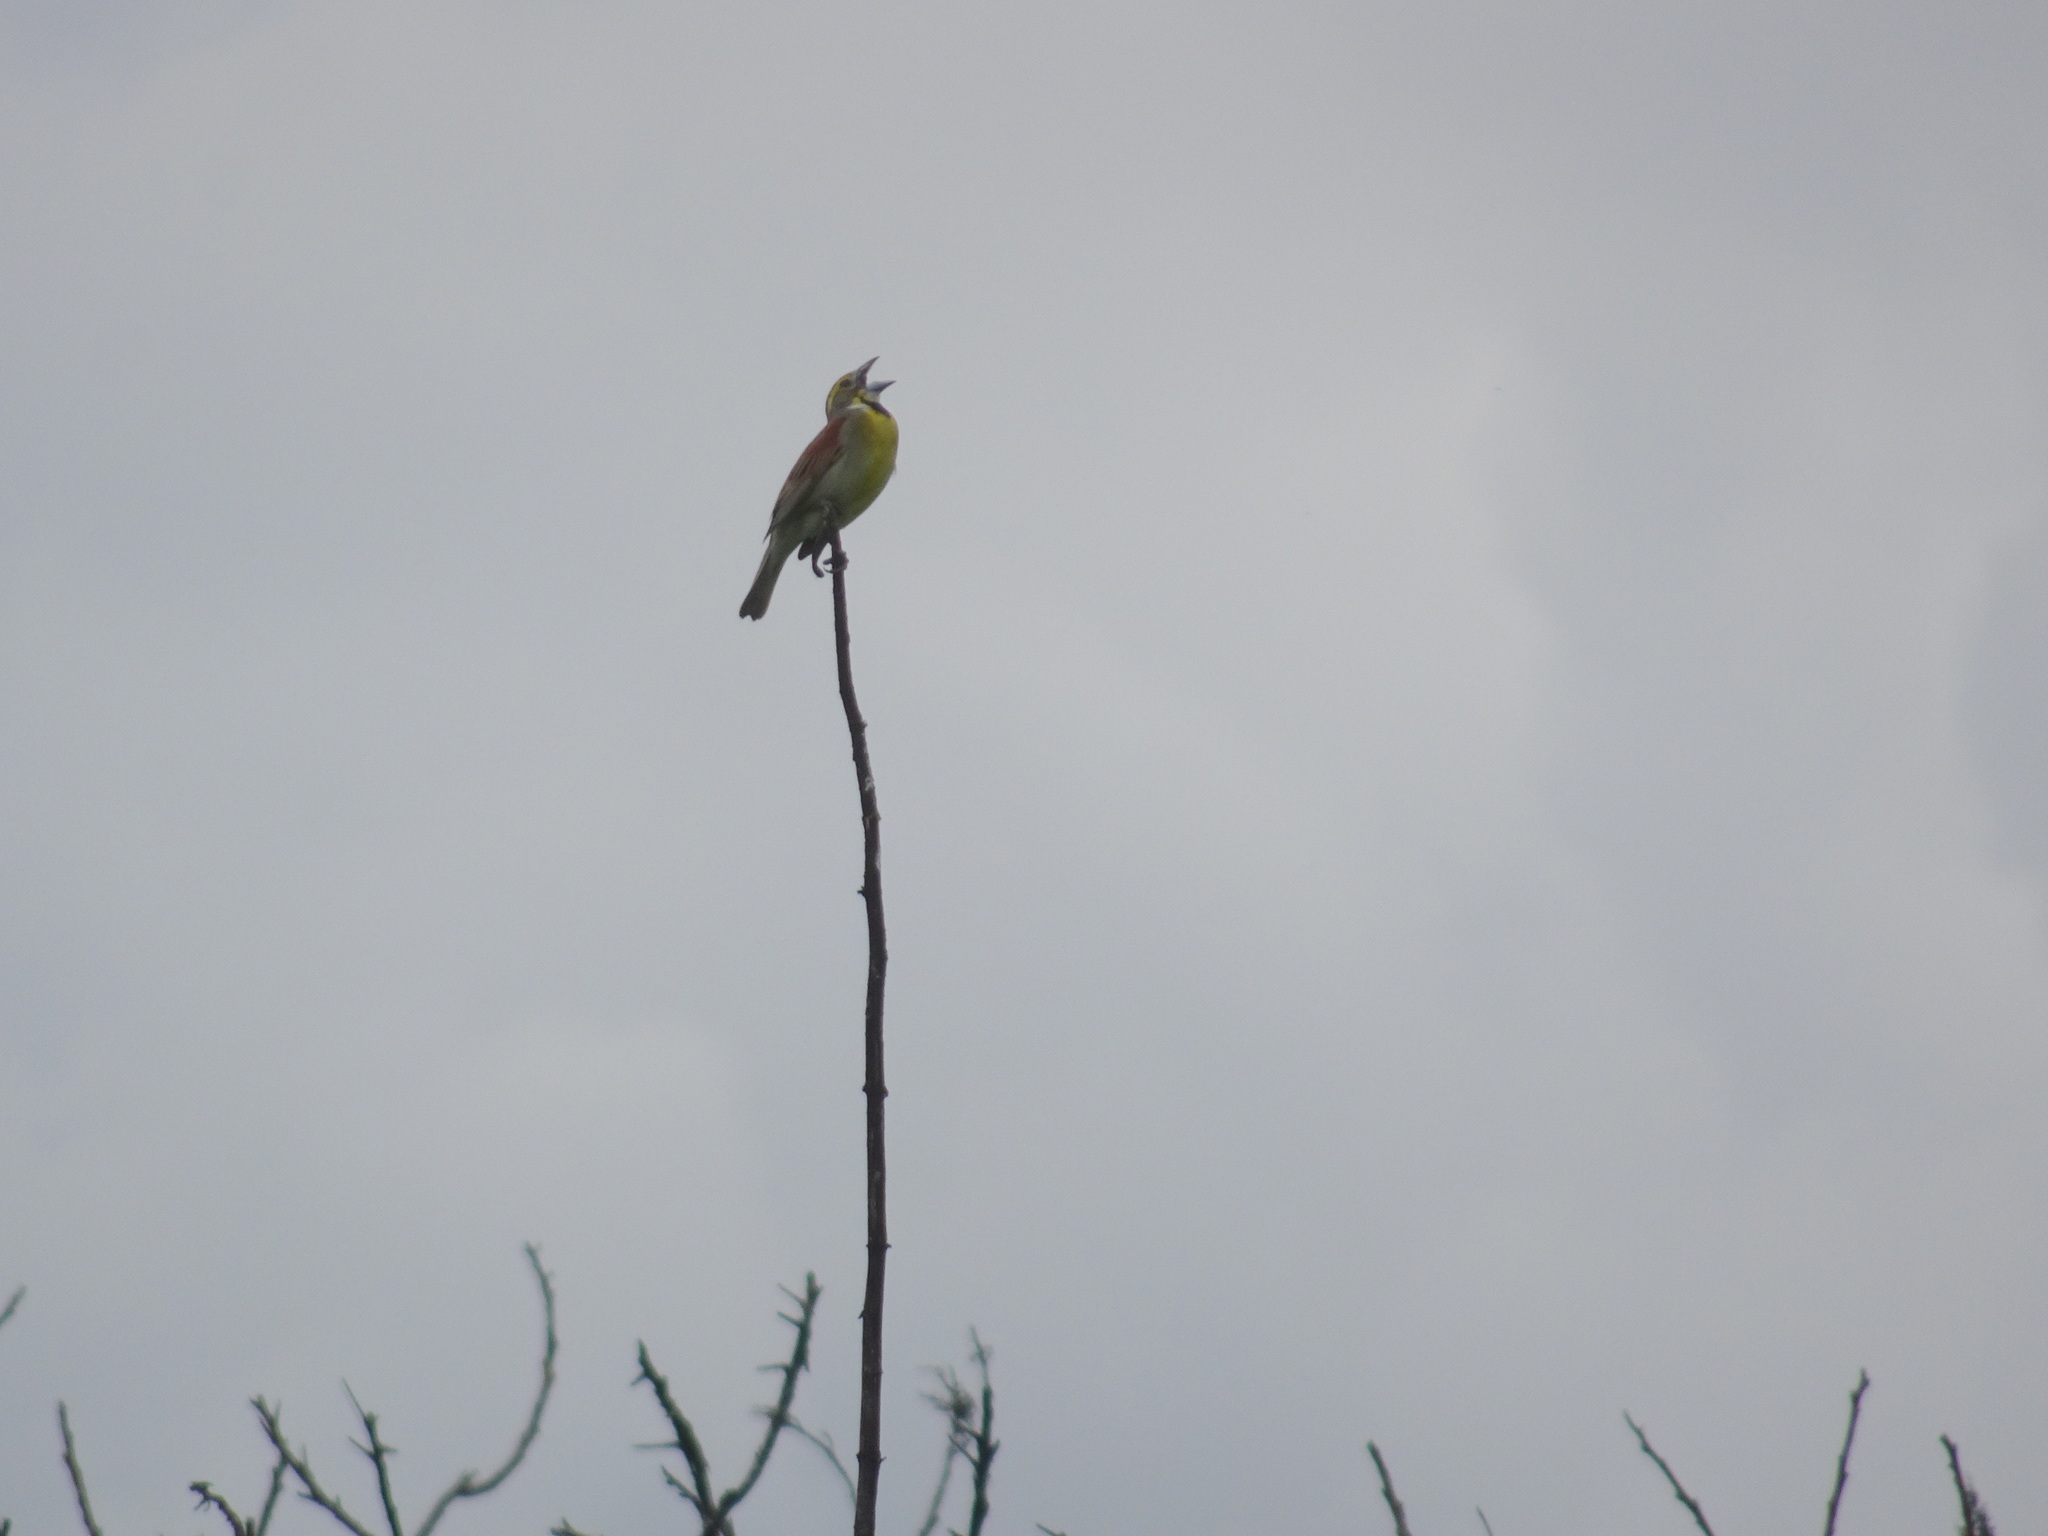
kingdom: Animalia
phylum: Chordata
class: Aves
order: Passeriformes
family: Cardinalidae
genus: Spiza
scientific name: Spiza americana
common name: Dickcissel
